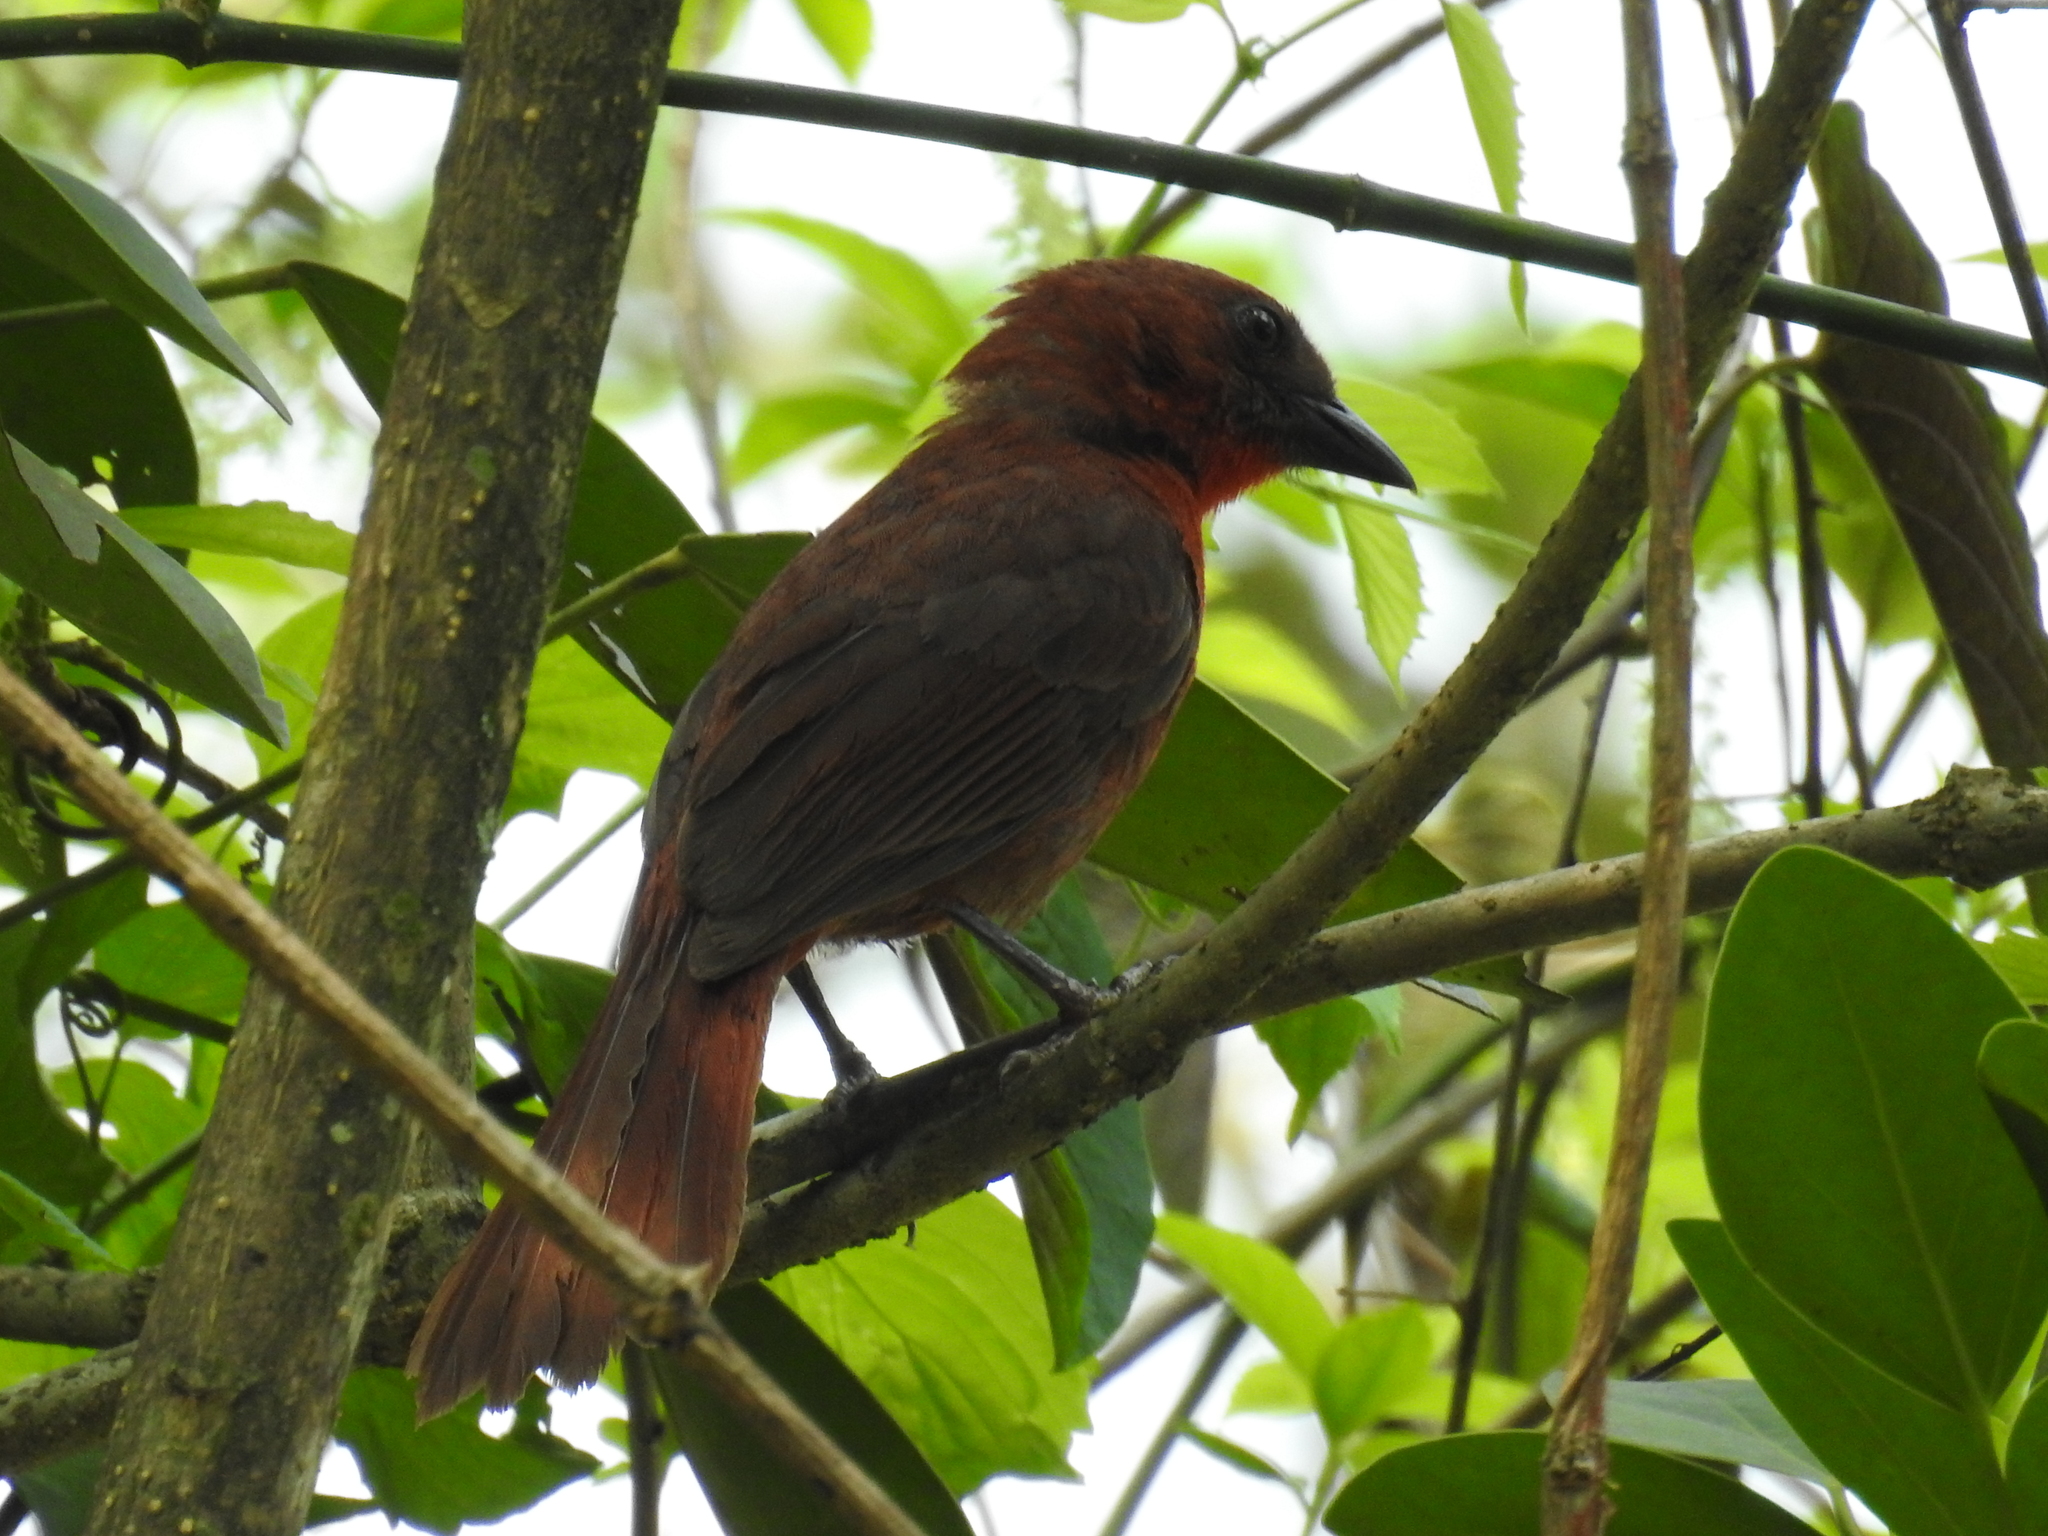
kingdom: Animalia
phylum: Chordata
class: Aves
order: Passeriformes
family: Cardinalidae
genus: Habia
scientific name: Habia fuscicauda
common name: Red-throated ant-tanager
